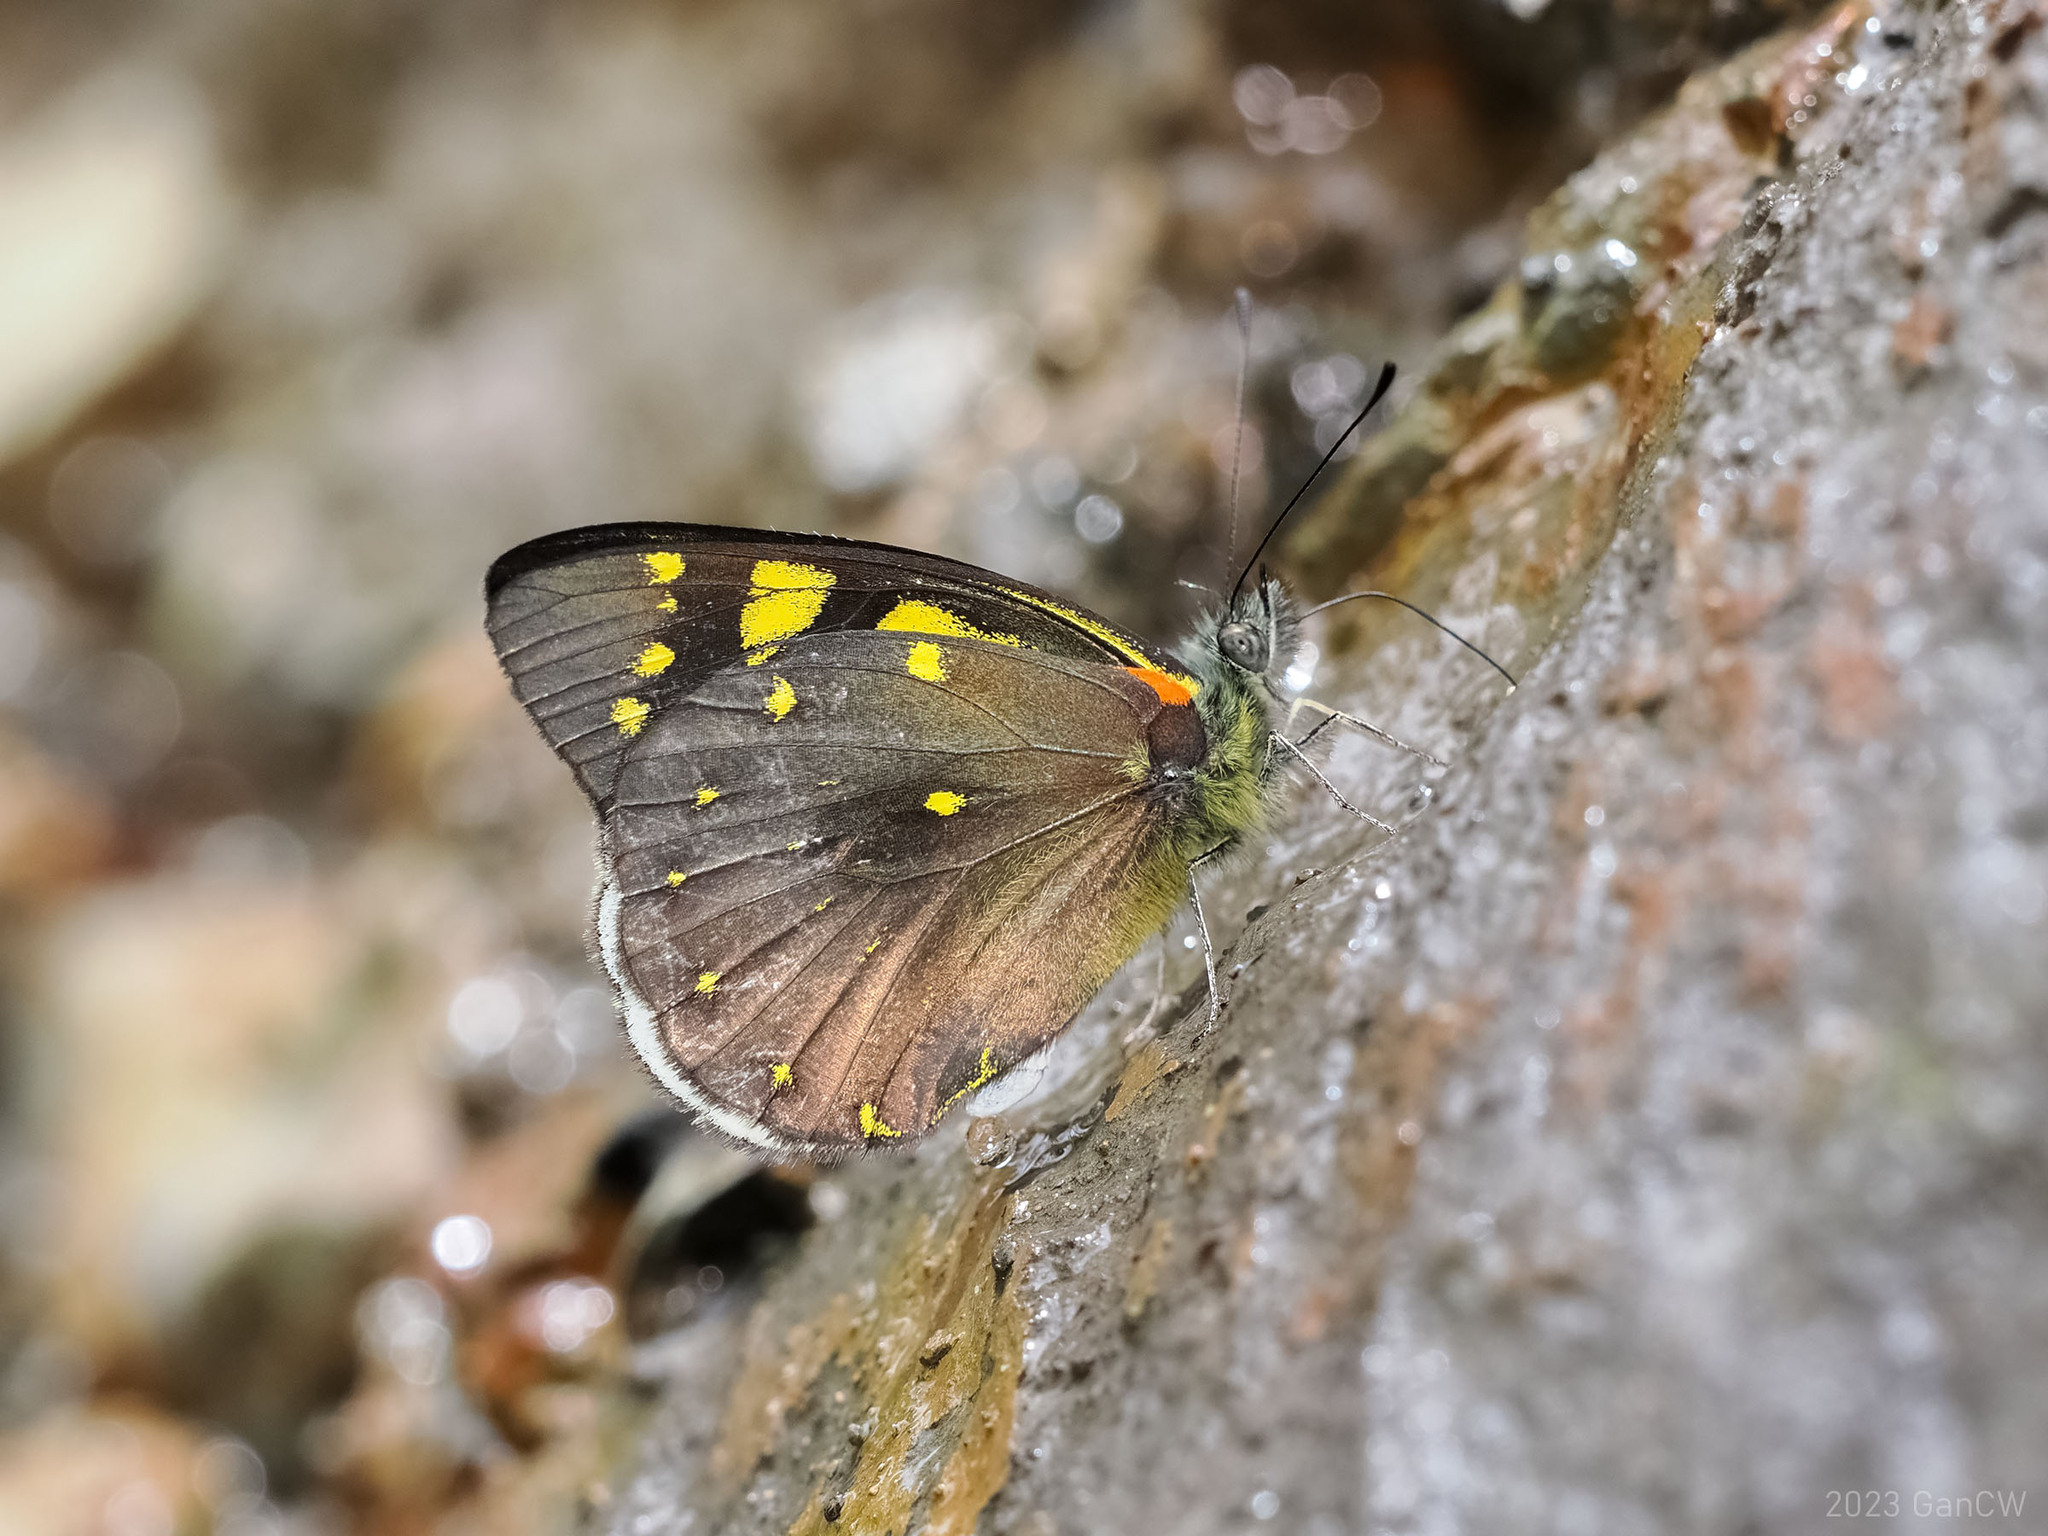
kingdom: Animalia
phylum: Arthropoda
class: Insecta
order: Lepidoptera
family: Pieridae
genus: Delias
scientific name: Delias microsticha
